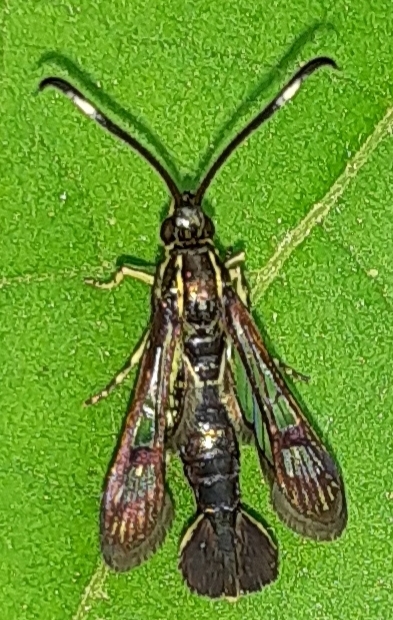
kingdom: Animalia
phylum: Arthropoda
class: Insecta
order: Lepidoptera
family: Sesiidae
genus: Carmenta
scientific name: Carmenta ithacae
